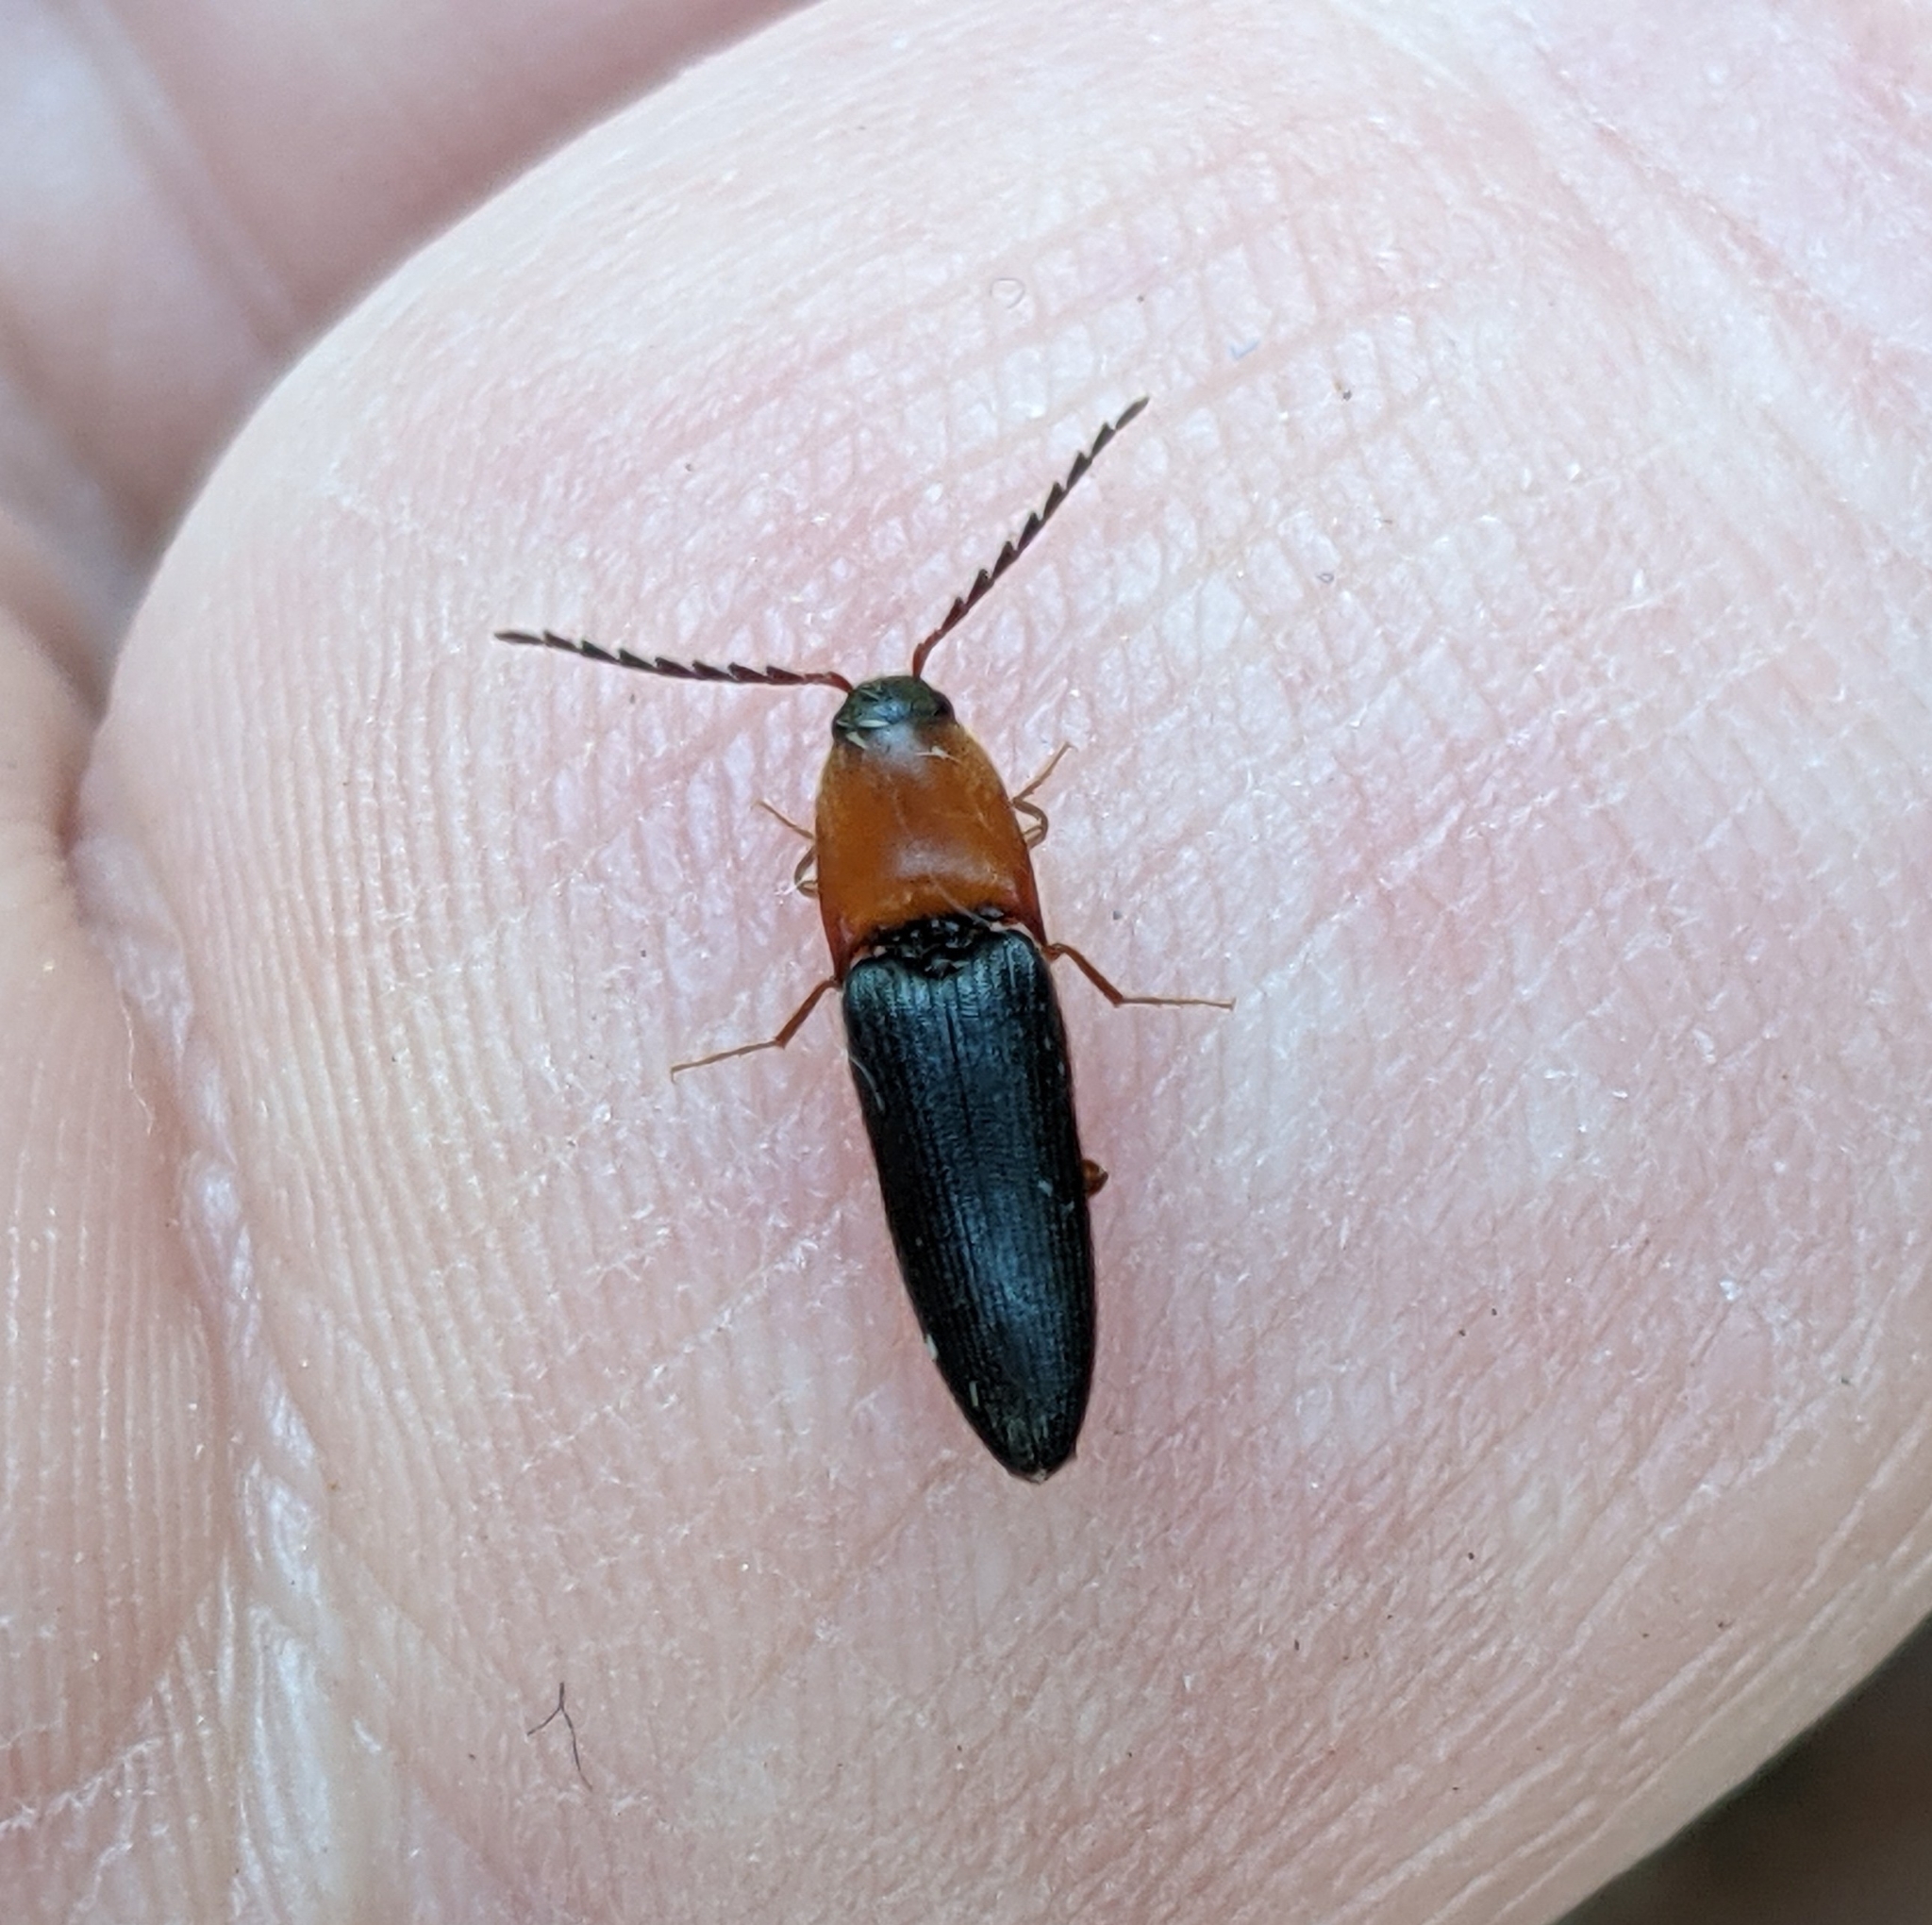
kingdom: Animalia
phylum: Arthropoda
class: Insecta
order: Coleoptera
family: Elateridae
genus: Megapenthes
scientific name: Megapenthes nigriventris
